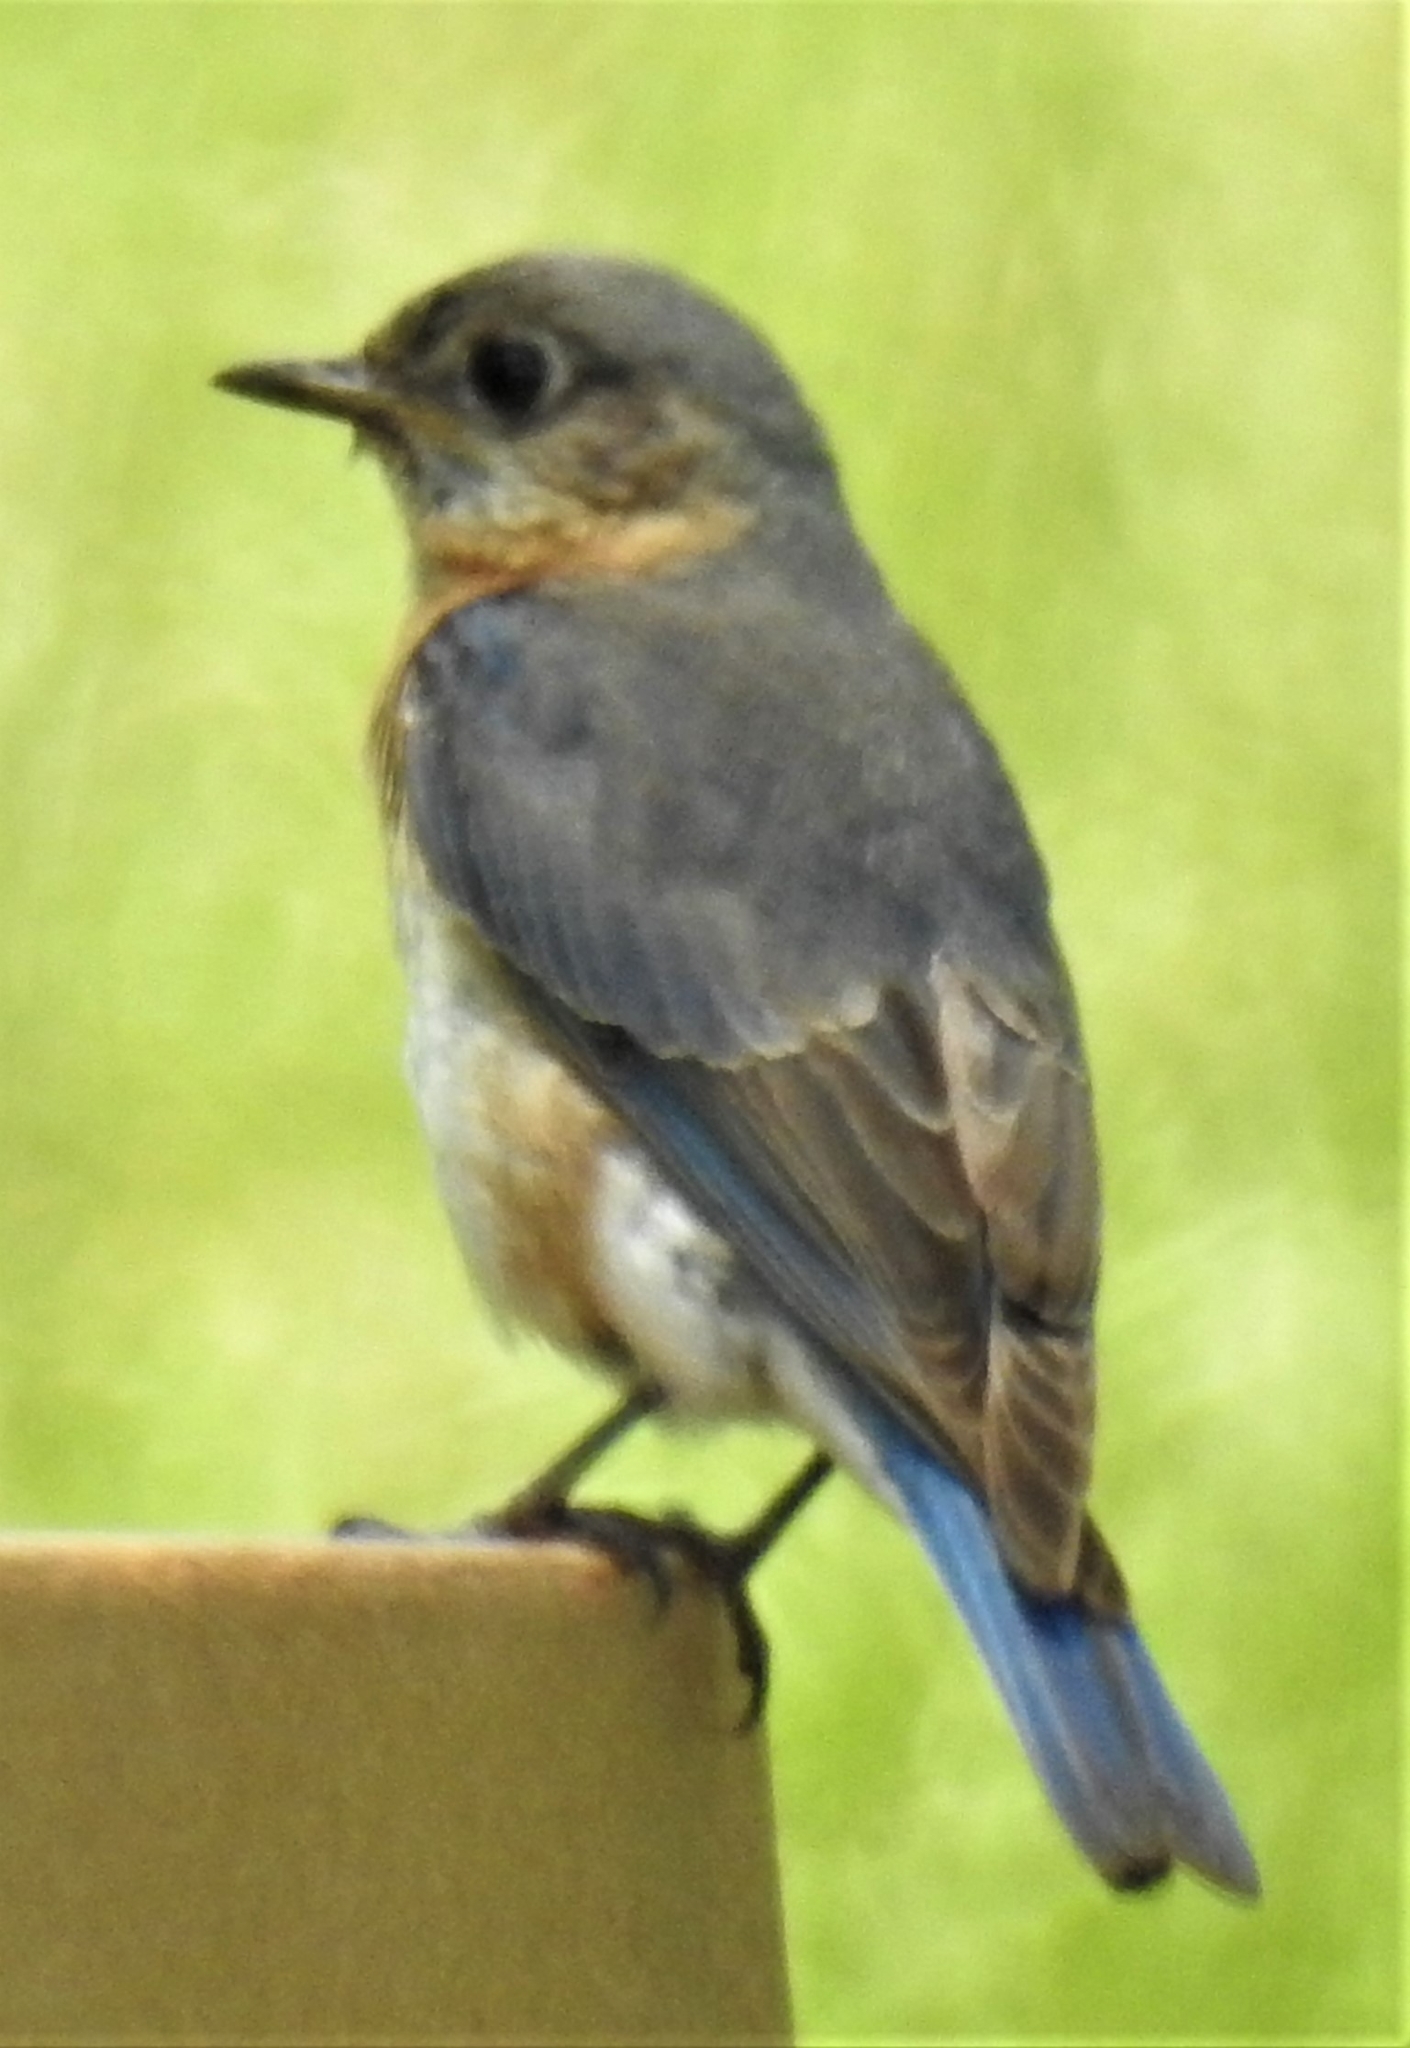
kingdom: Animalia
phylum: Chordata
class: Aves
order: Passeriformes
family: Turdidae
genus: Sialia
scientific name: Sialia sialis
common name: Eastern bluebird
